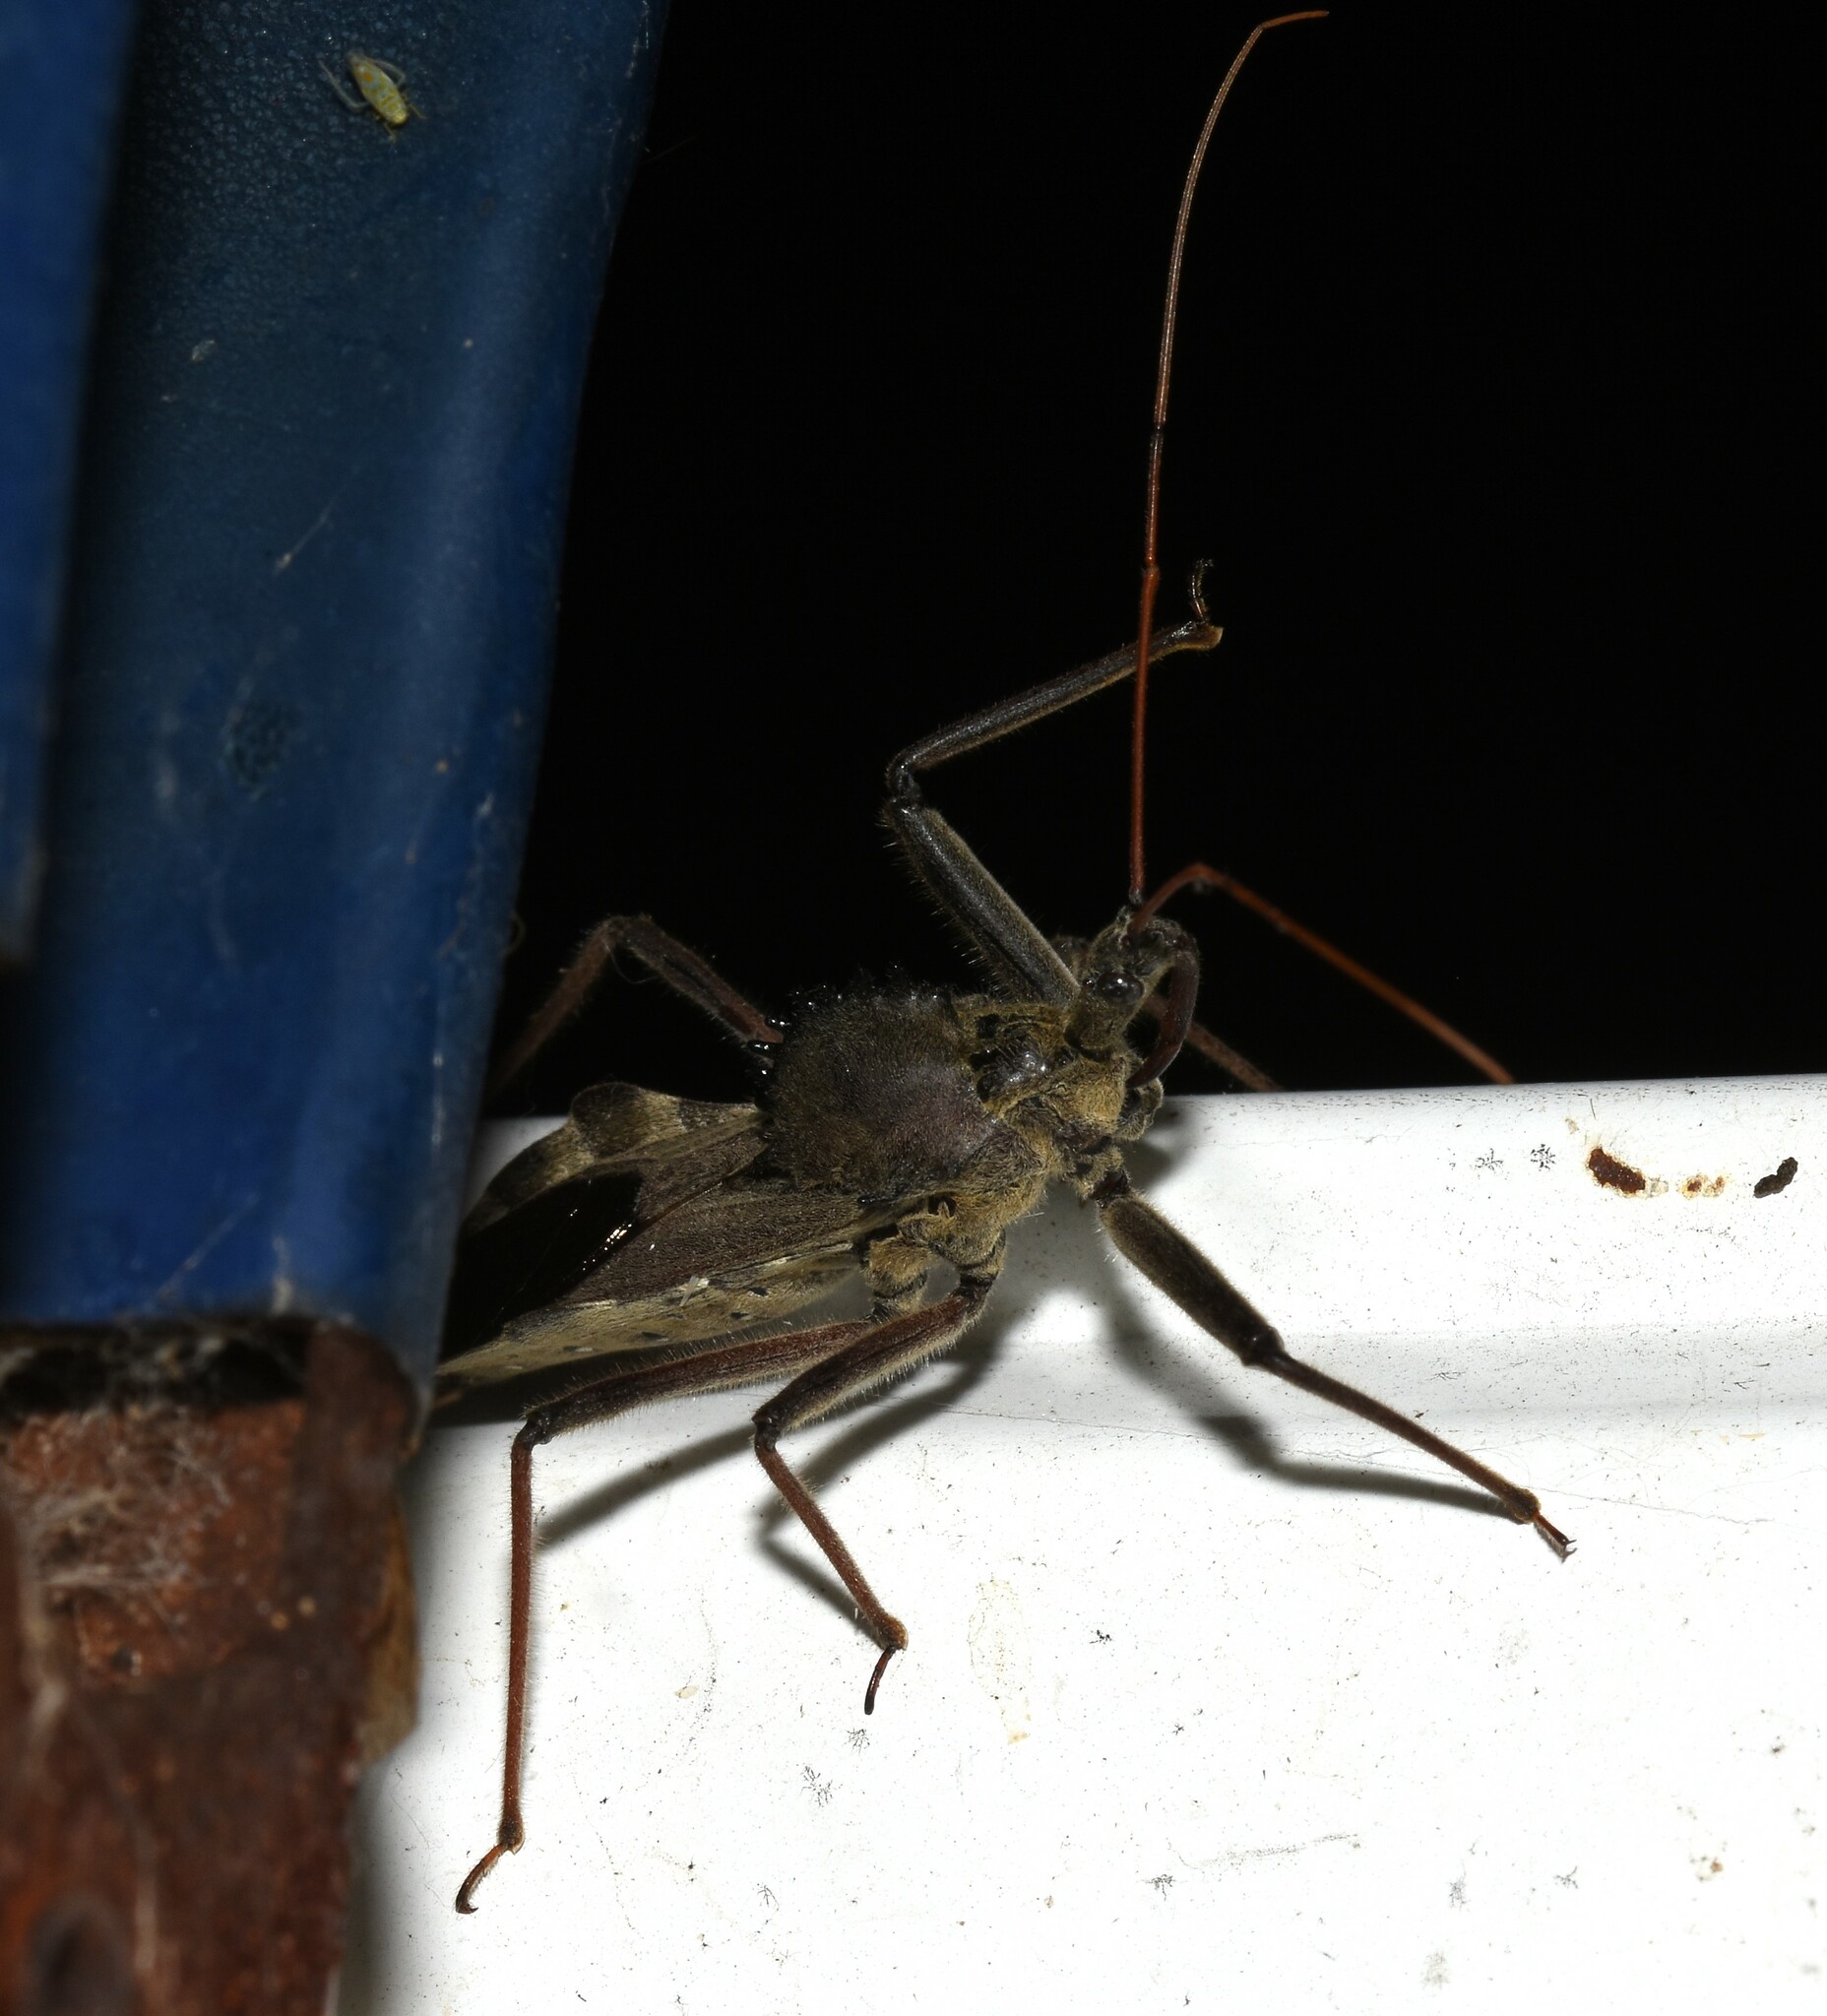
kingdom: Animalia
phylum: Arthropoda
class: Insecta
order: Hemiptera
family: Reduviidae
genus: Arilus
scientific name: Arilus cristatus
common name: North american wheel bug
